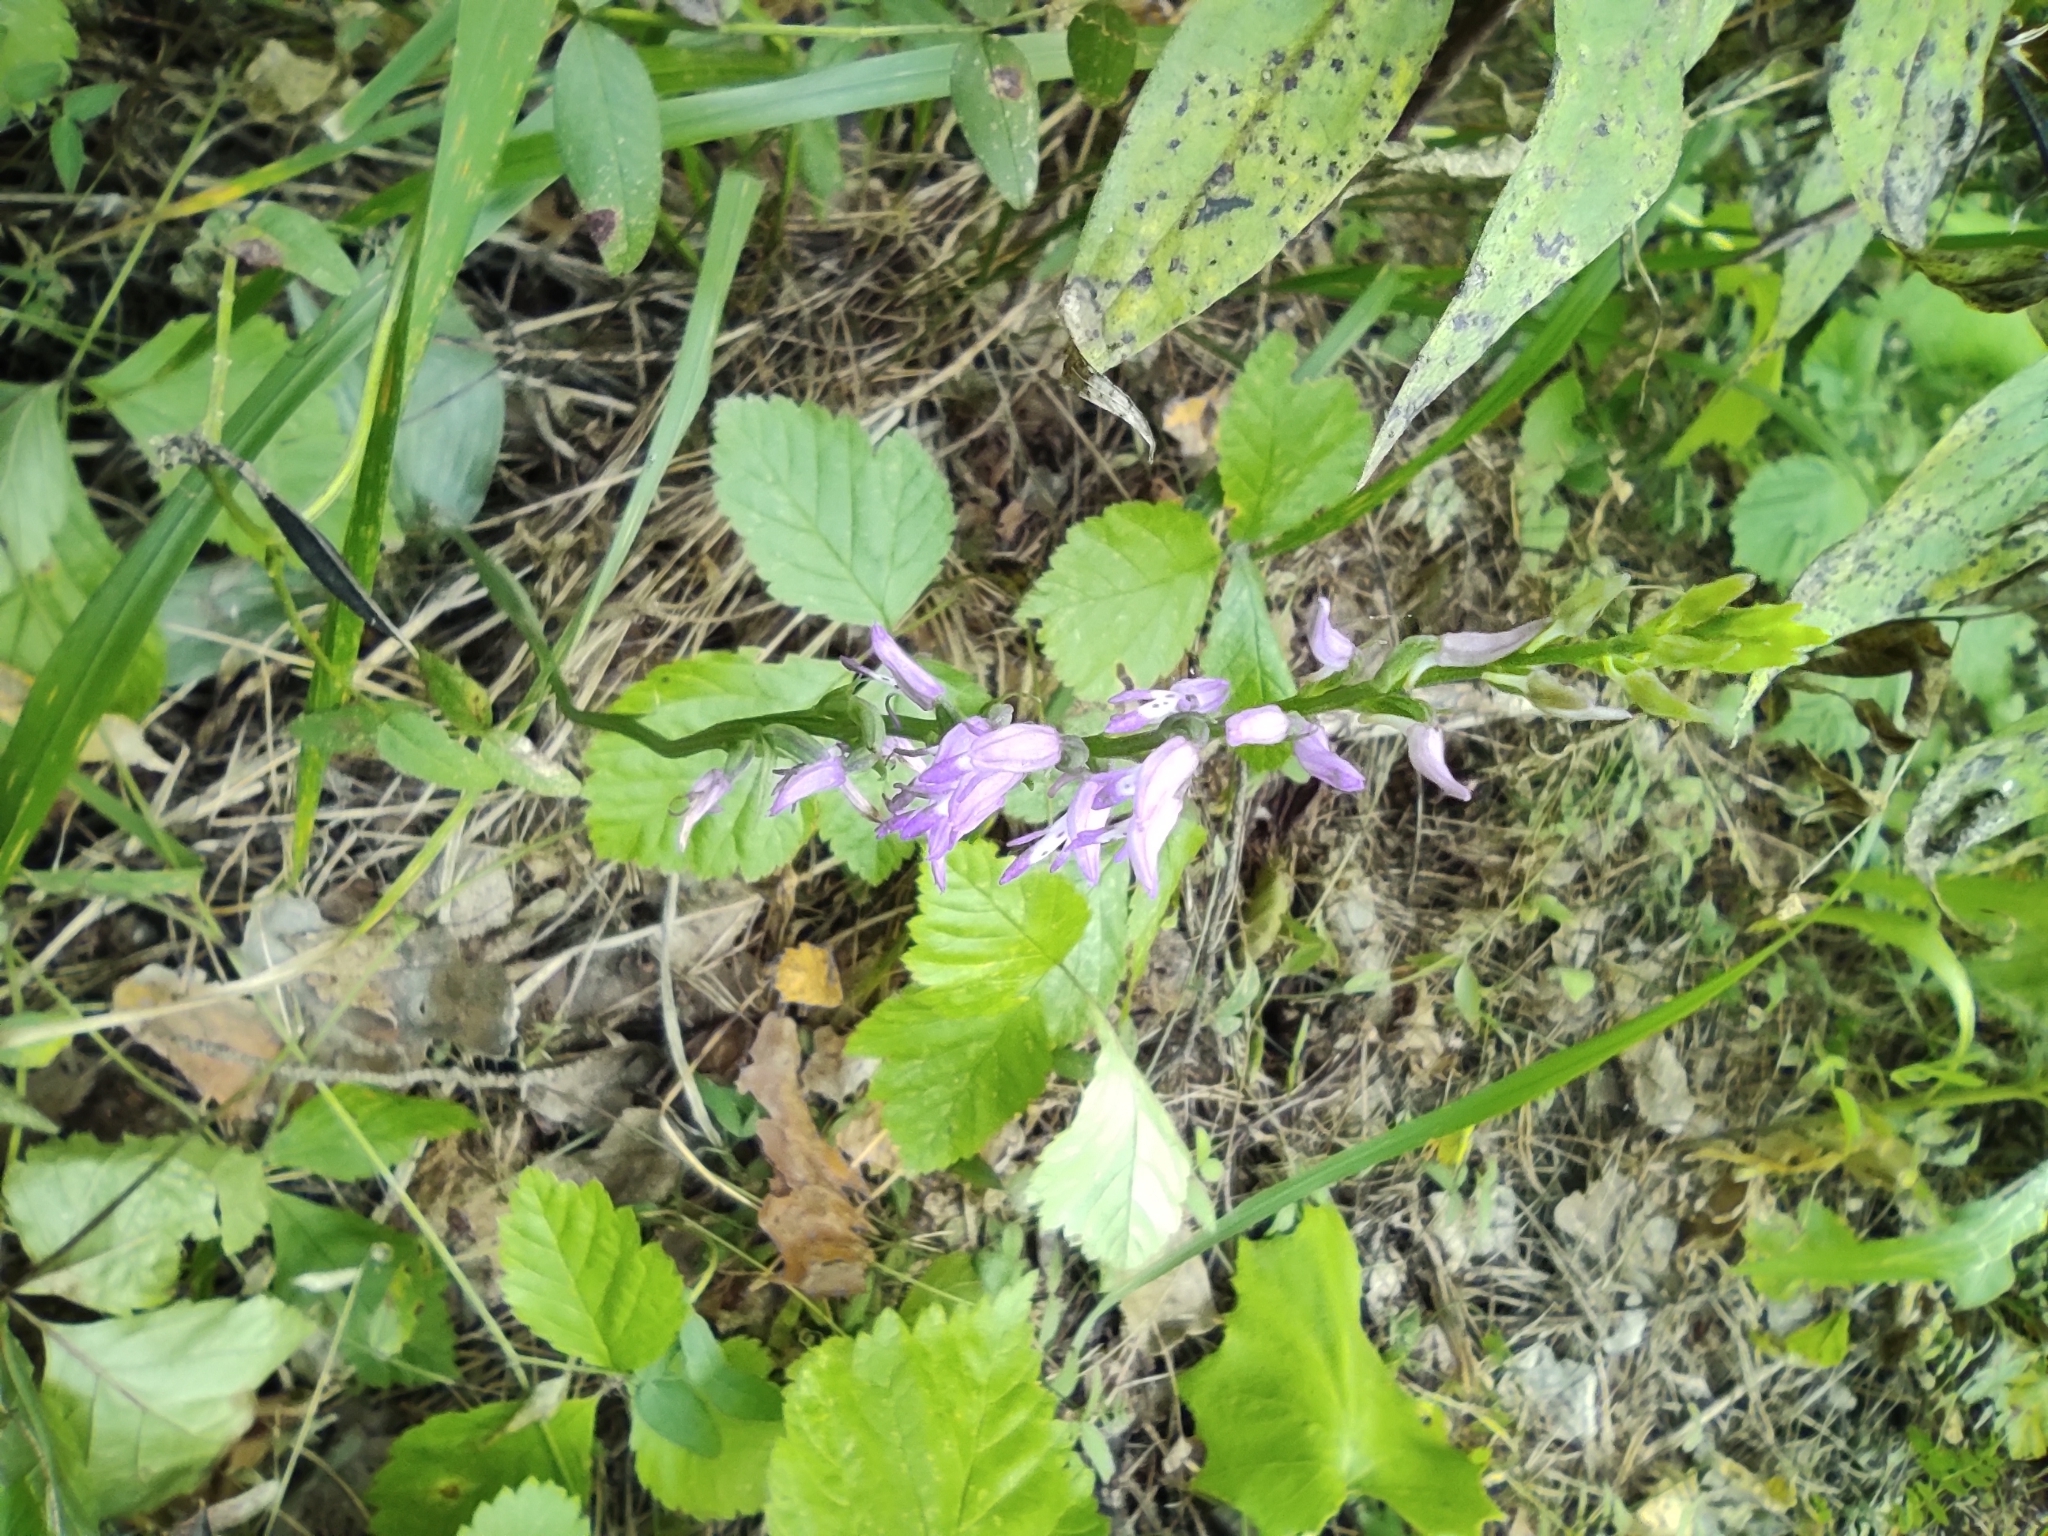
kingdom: Plantae
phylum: Tracheophyta
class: Liliopsida
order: Asparagales
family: Orchidaceae
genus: Hemipilia
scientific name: Hemipilia cucullata
